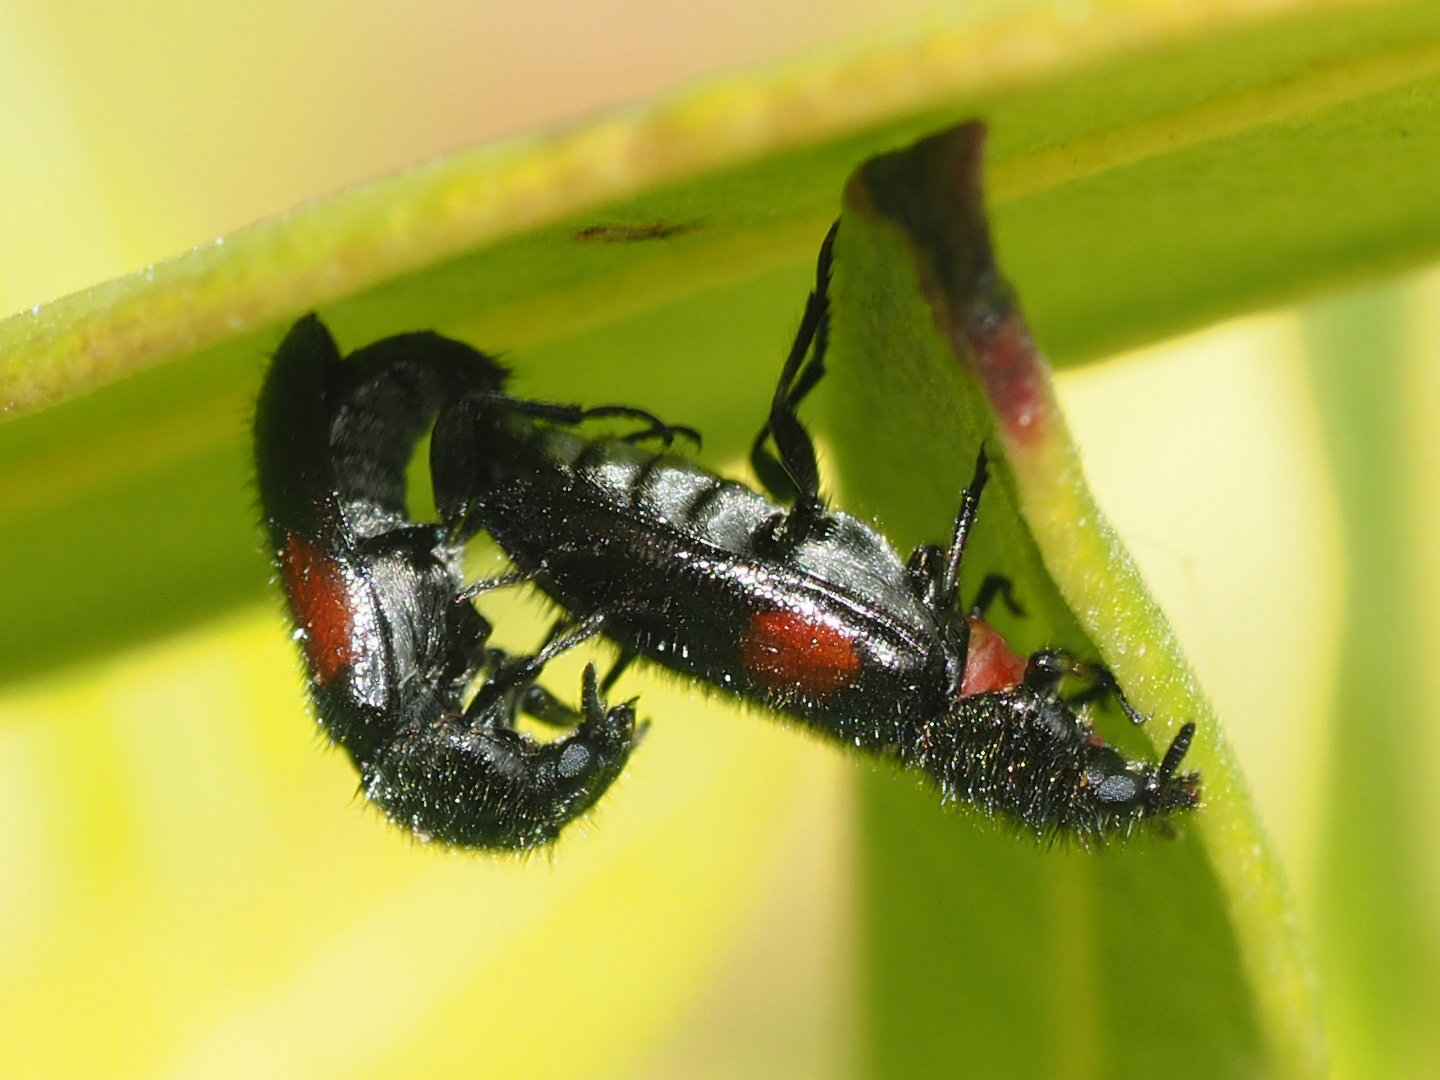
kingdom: Animalia
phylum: Arthropoda
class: Insecta
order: Coleoptera
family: Melyridae
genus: Divales
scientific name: Divales bipustulatus
